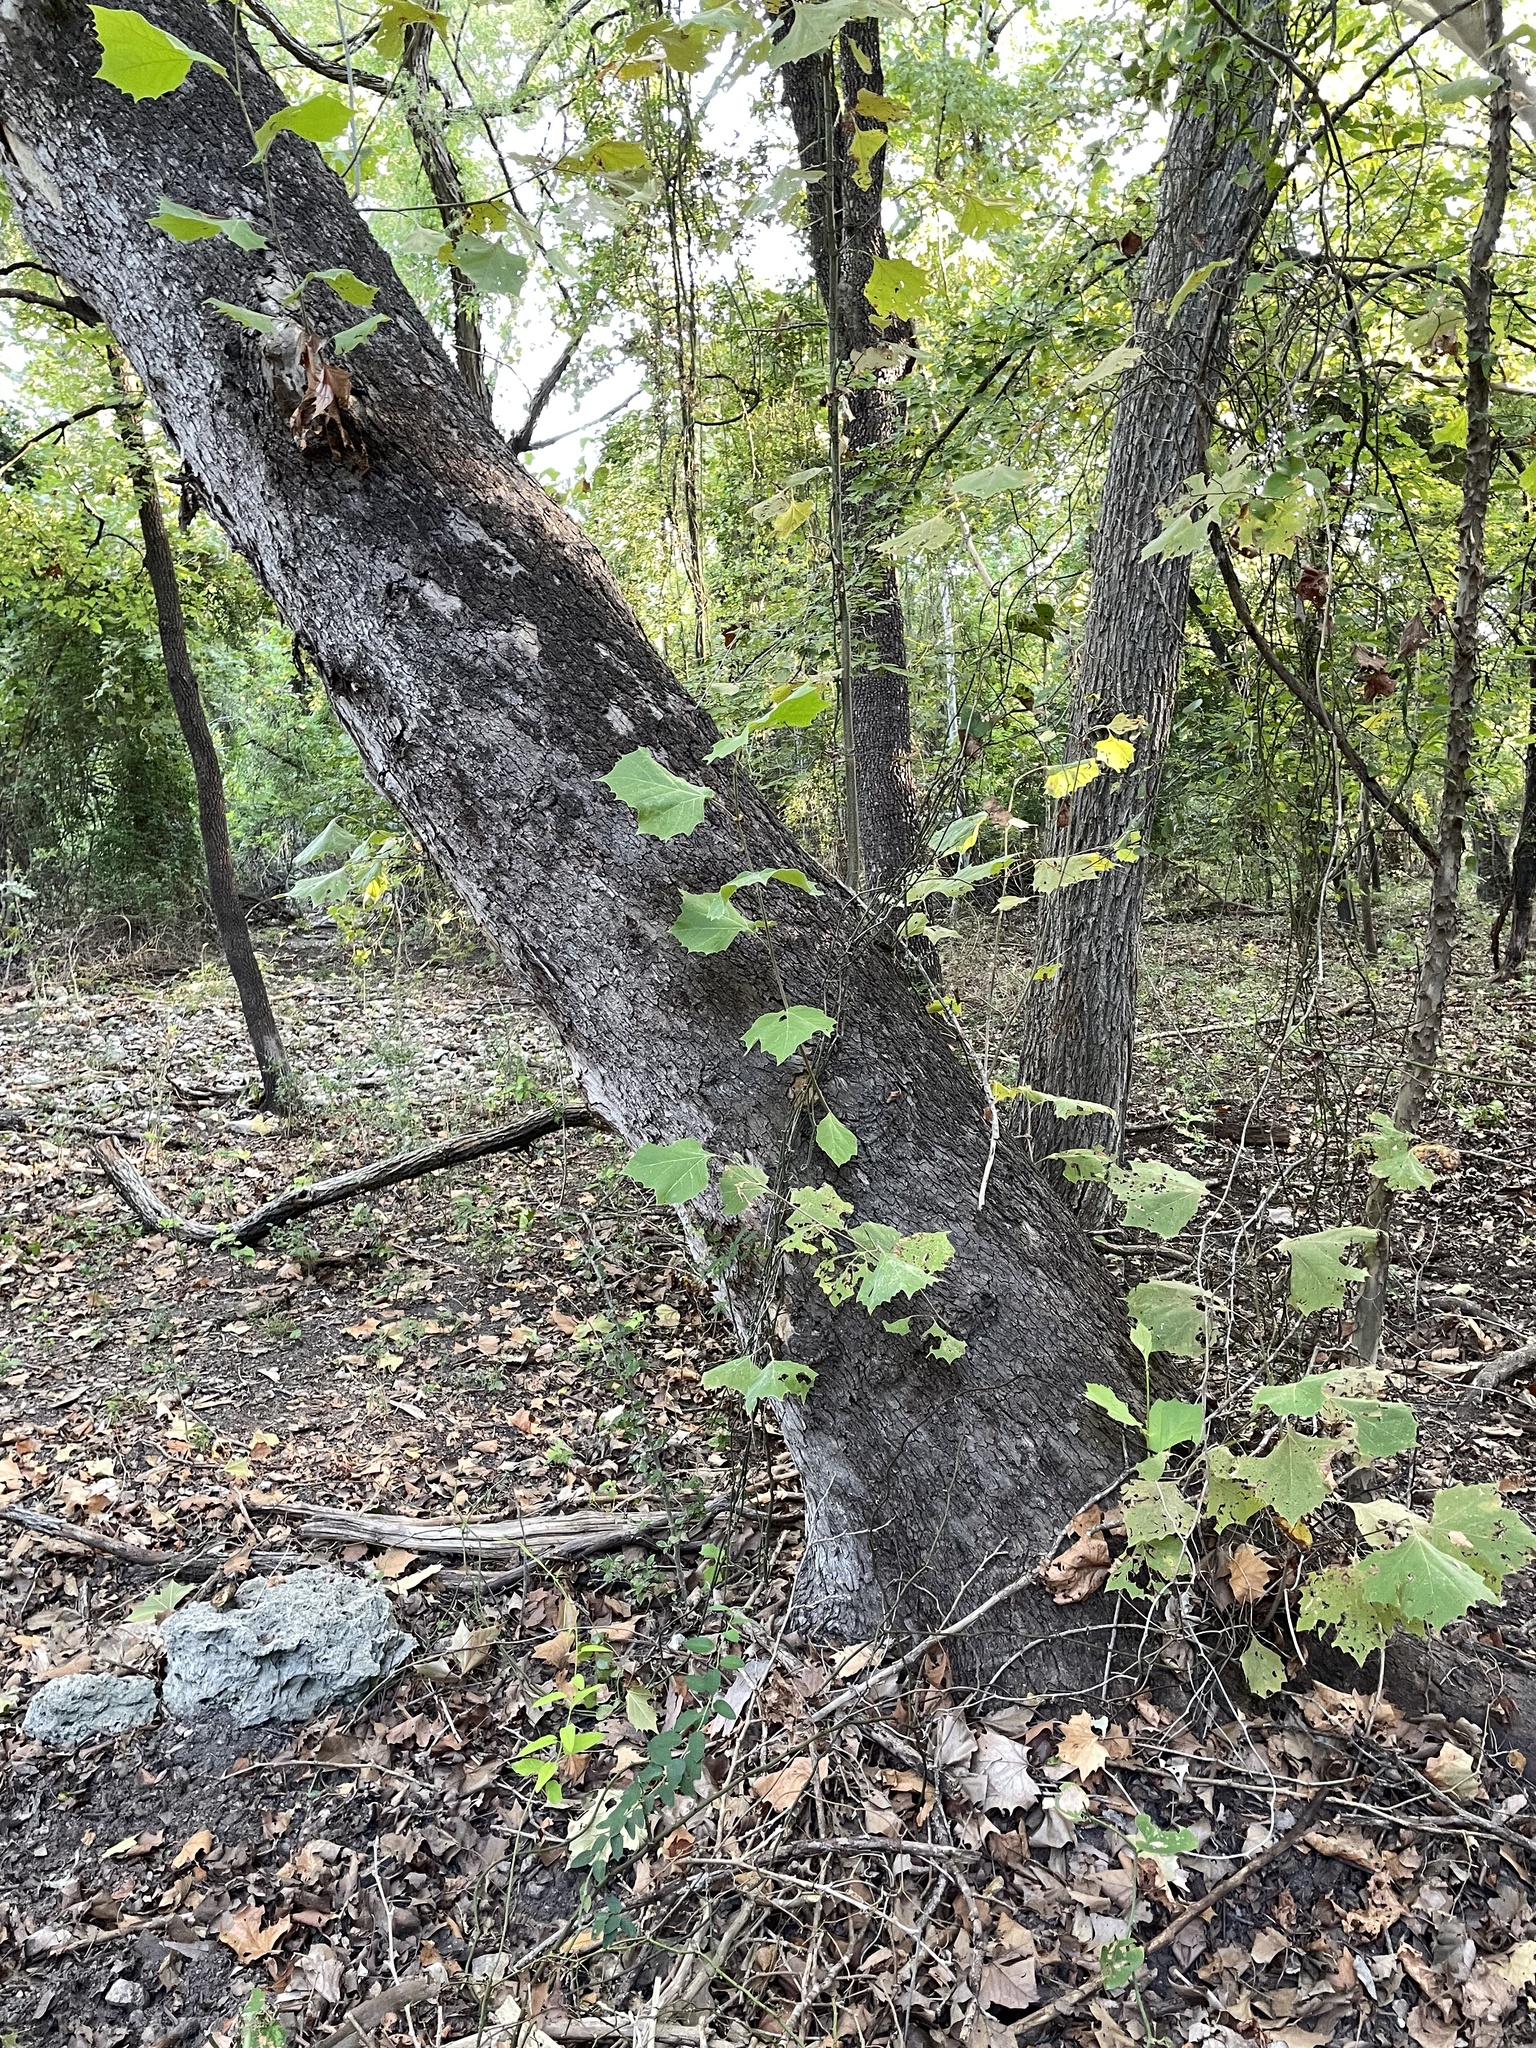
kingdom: Plantae
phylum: Tracheophyta
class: Magnoliopsida
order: Proteales
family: Platanaceae
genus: Platanus
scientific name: Platanus occidentalis
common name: American sycamore
